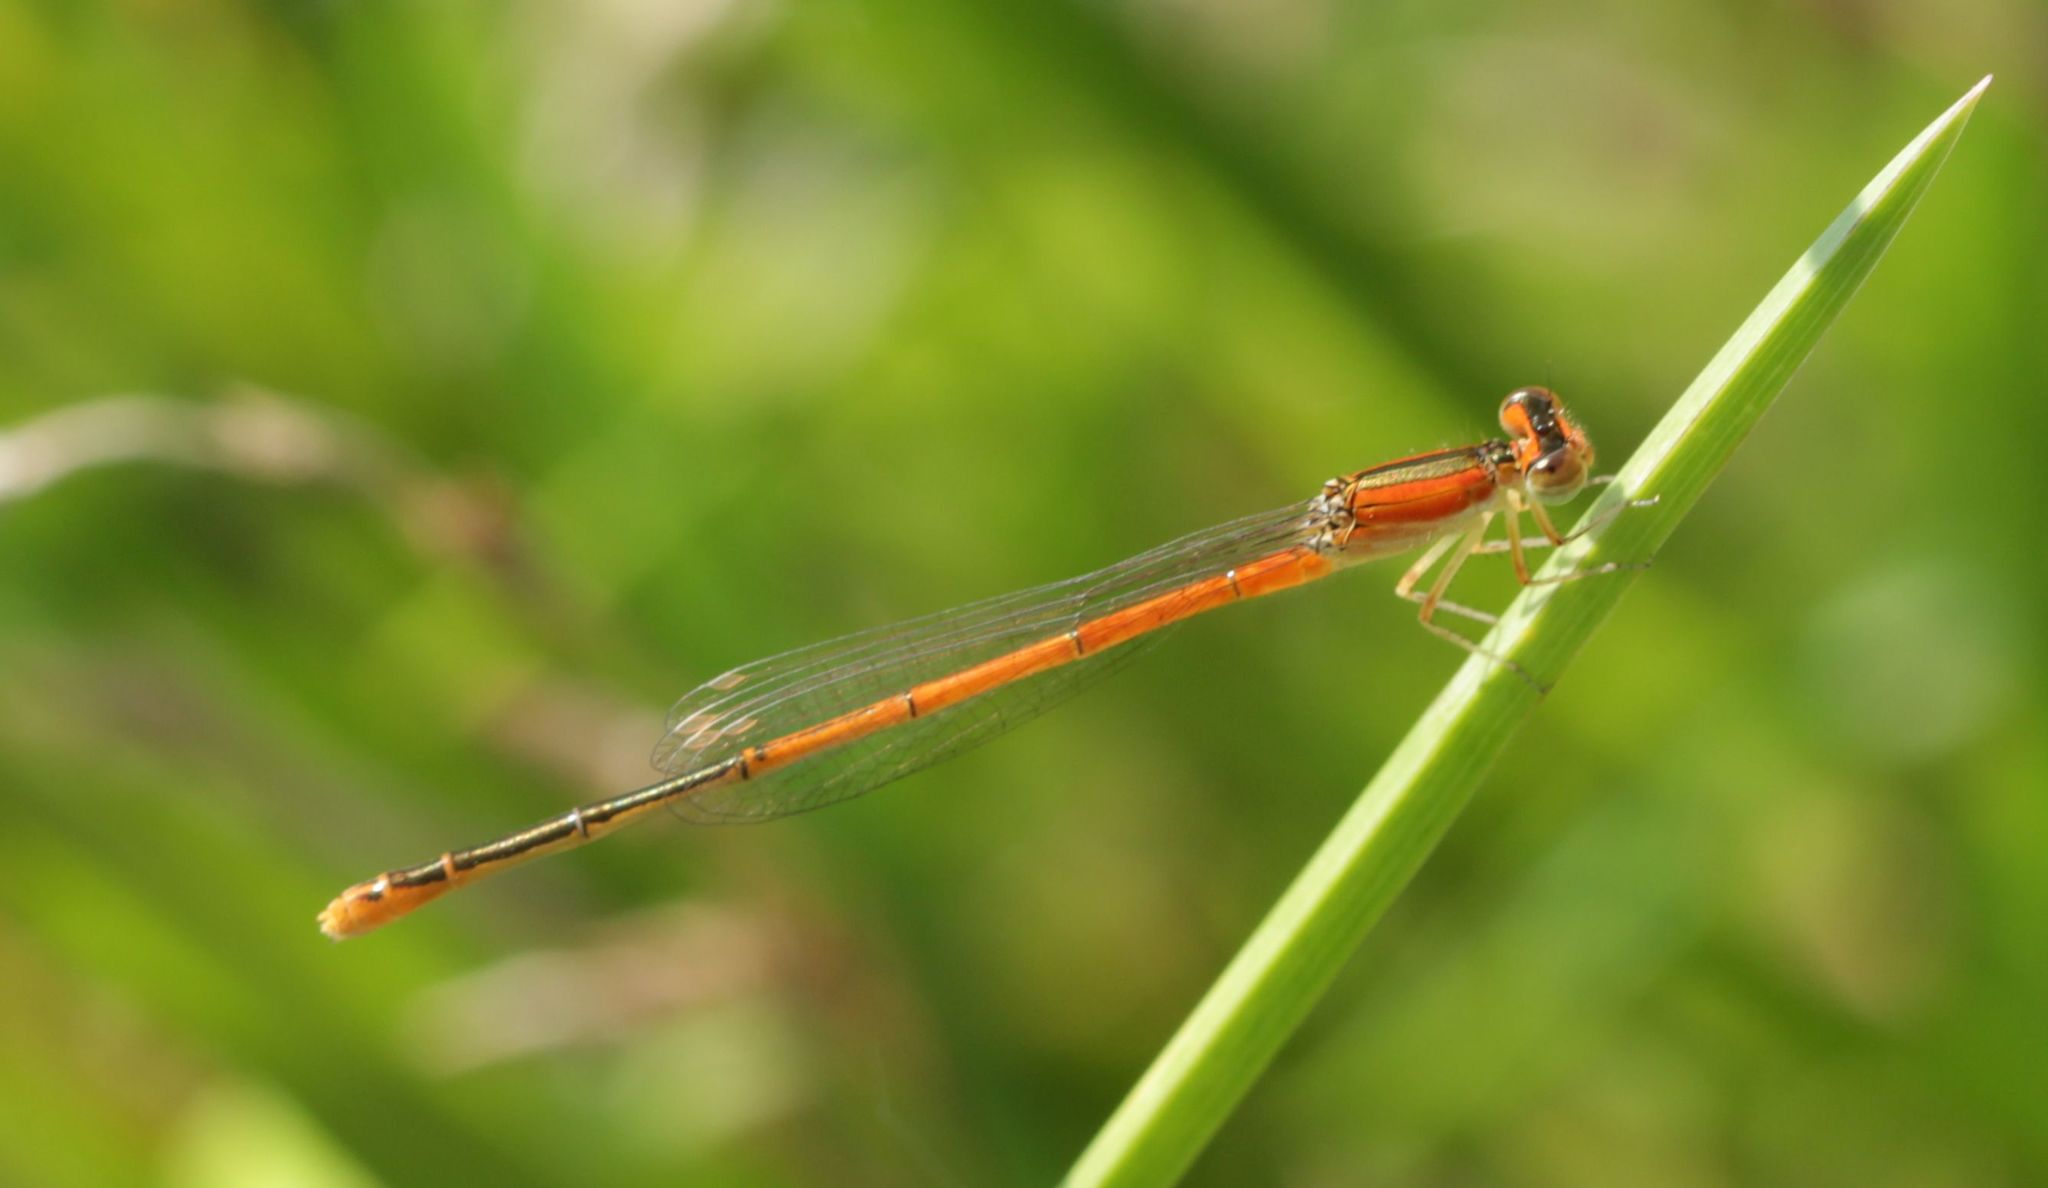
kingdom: Animalia
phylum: Arthropoda
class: Insecta
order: Odonata
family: Coenagrionidae
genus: Ischnura
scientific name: Ischnura hastata
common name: Citrine forktail
